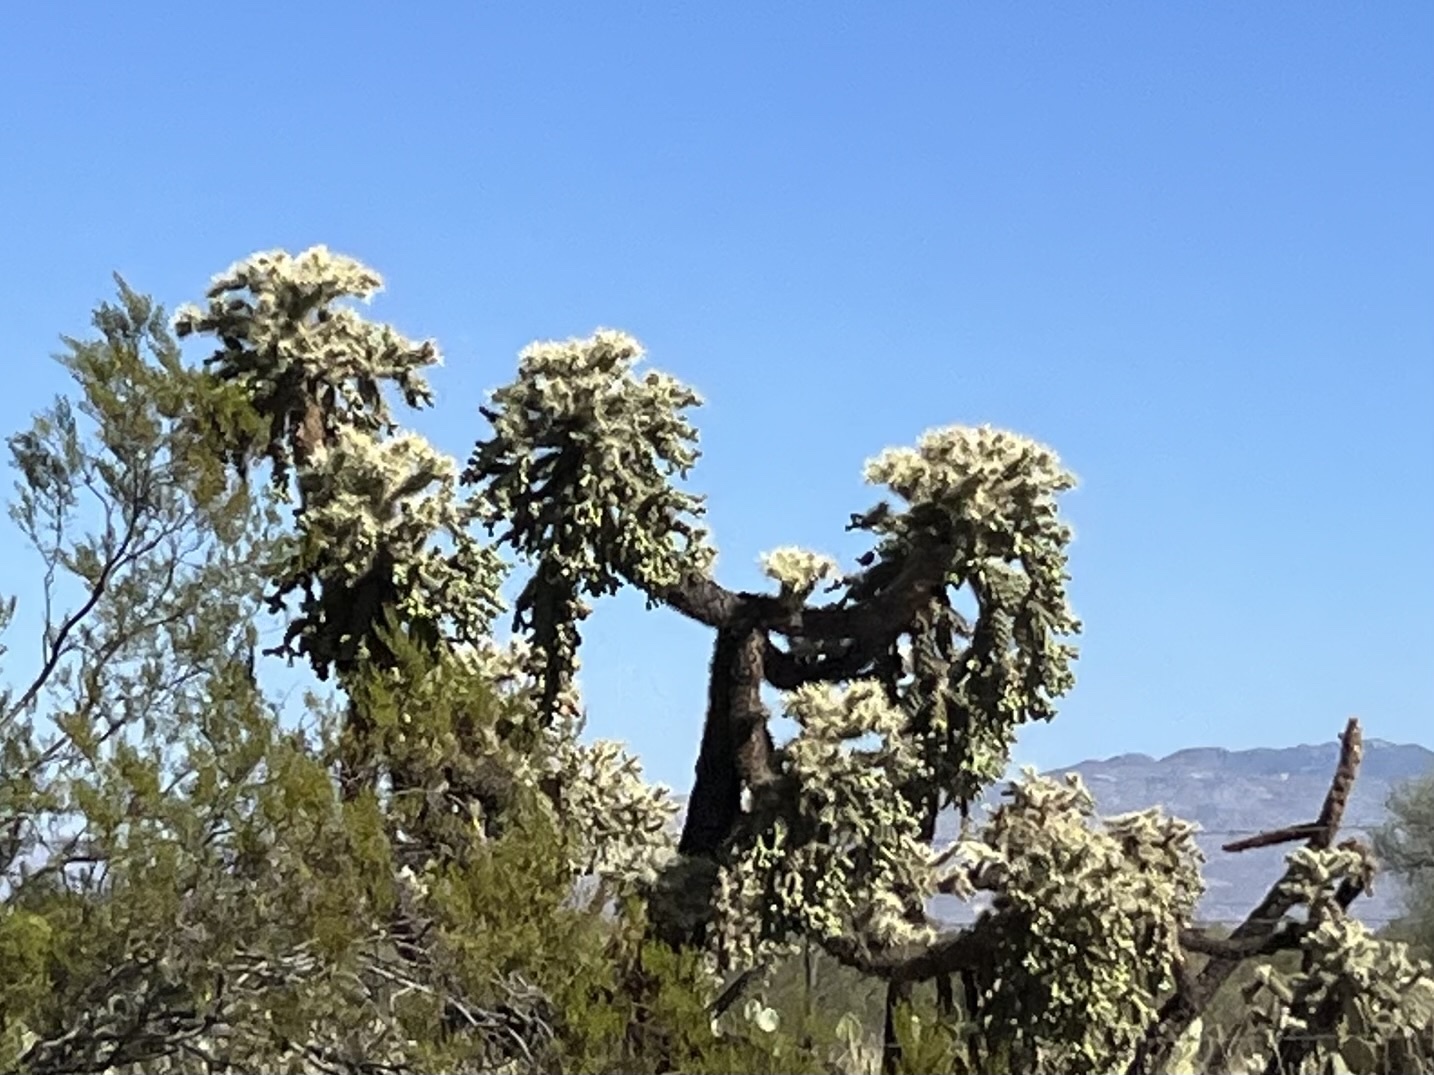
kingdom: Plantae
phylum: Tracheophyta
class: Magnoliopsida
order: Caryophyllales
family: Cactaceae
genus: Cylindropuntia
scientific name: Cylindropuntia fulgida
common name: Jumping cholla
